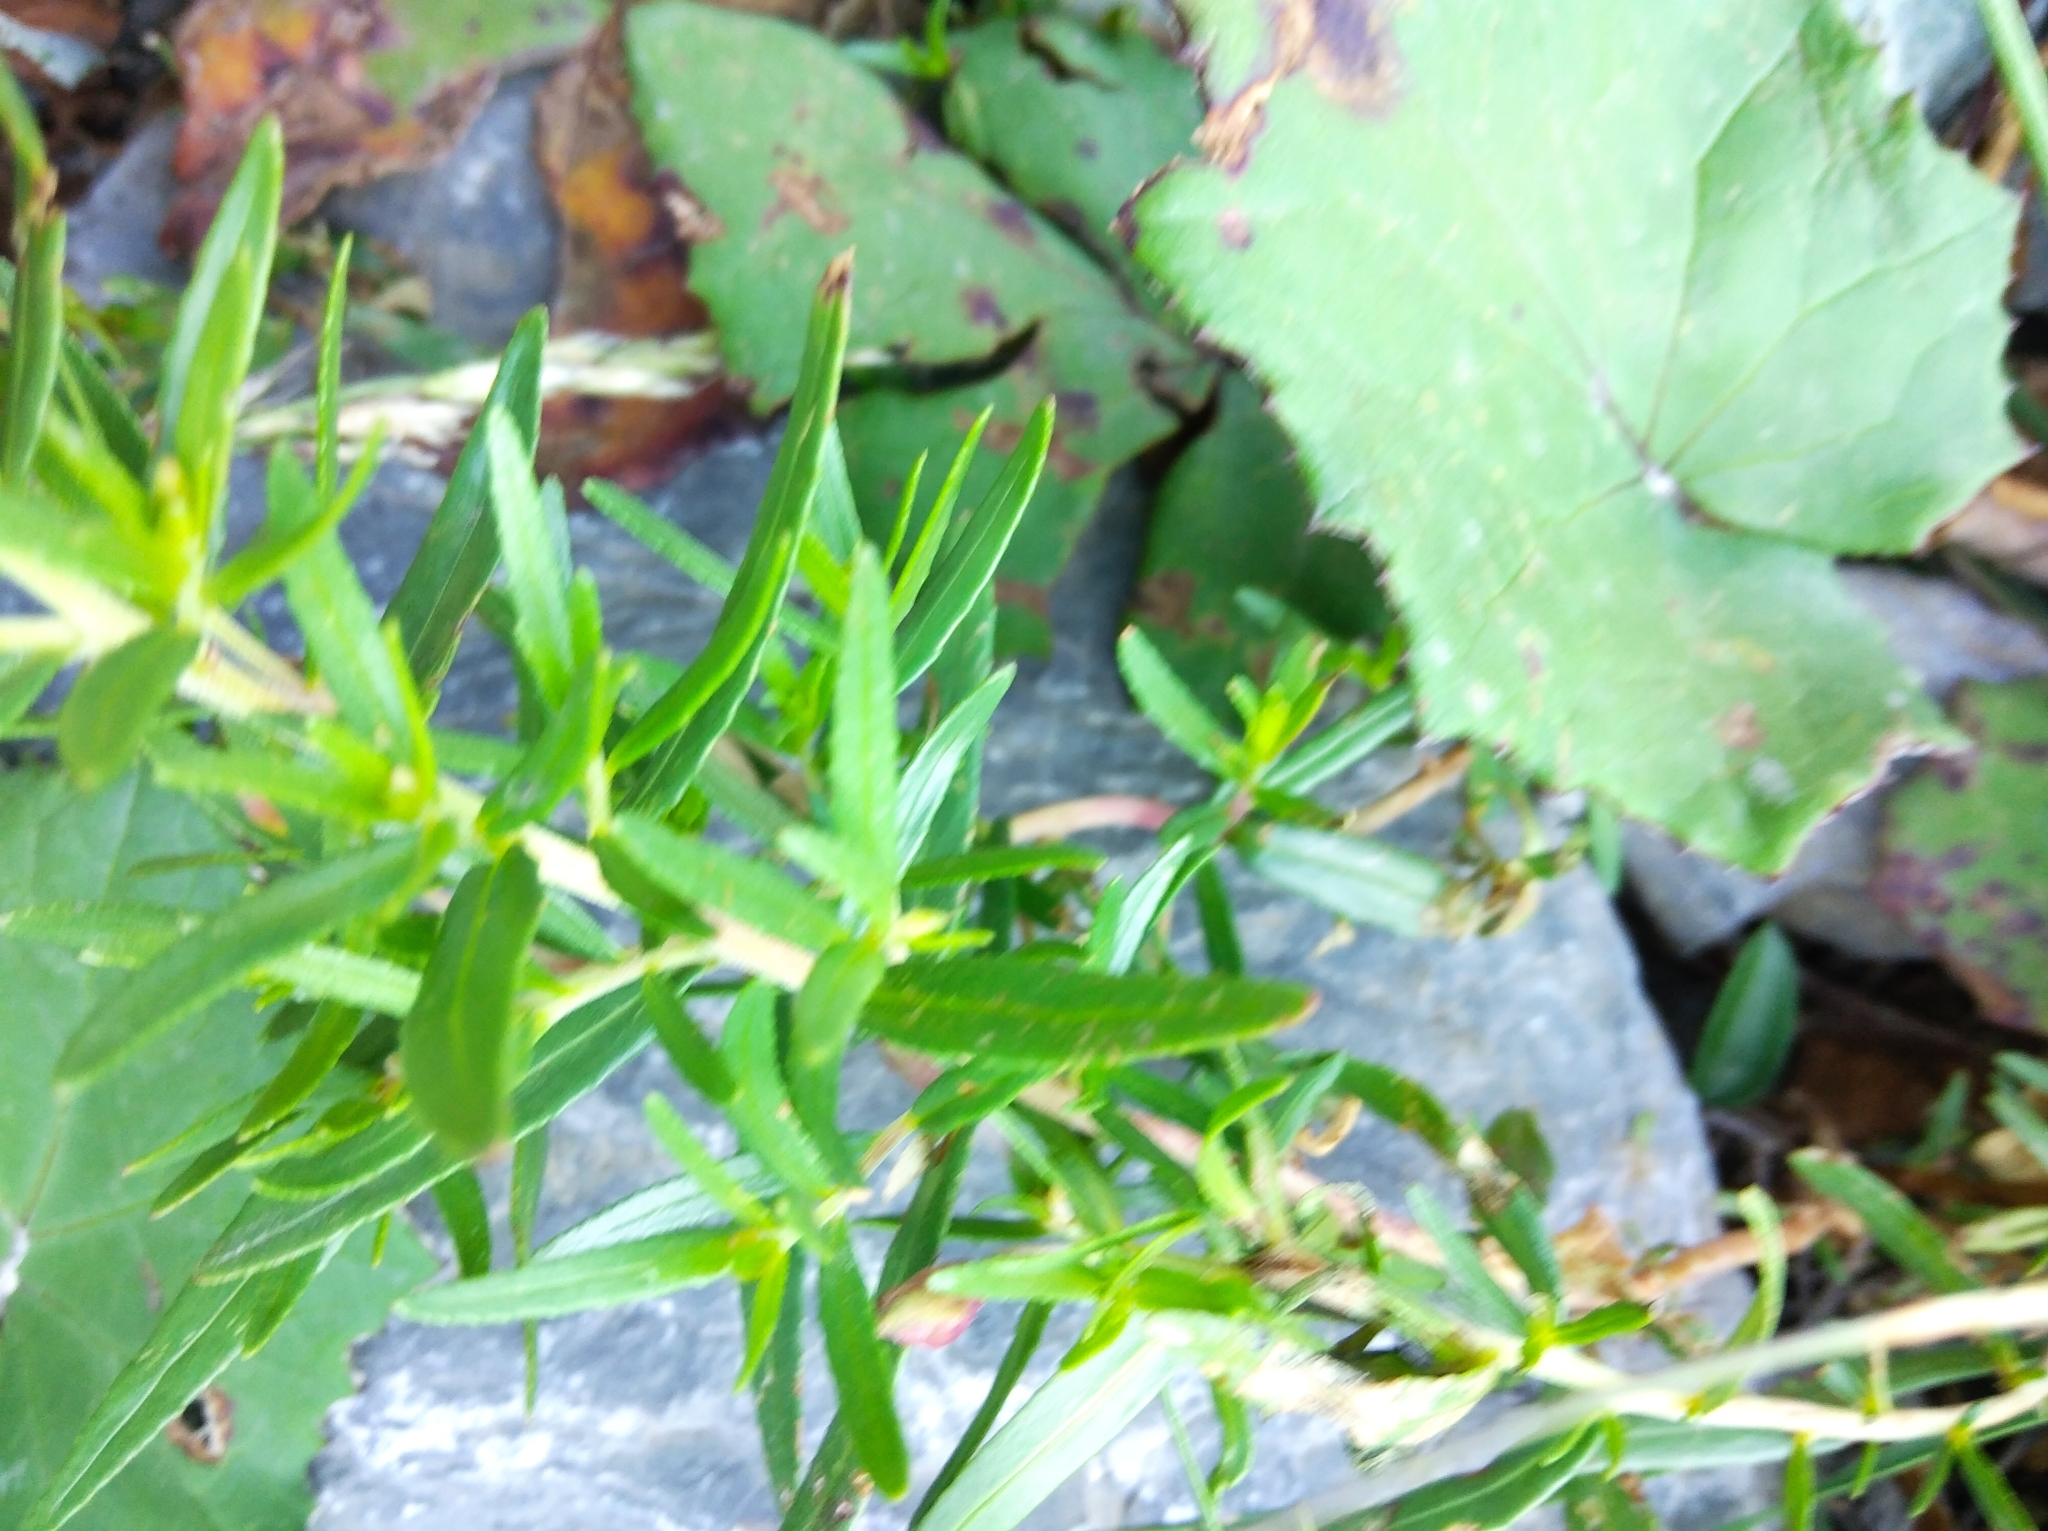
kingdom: Plantae
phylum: Tracheophyta
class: Magnoliopsida
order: Myrtales
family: Onagraceae
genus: Chamaenerion
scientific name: Chamaenerion fleischeri
